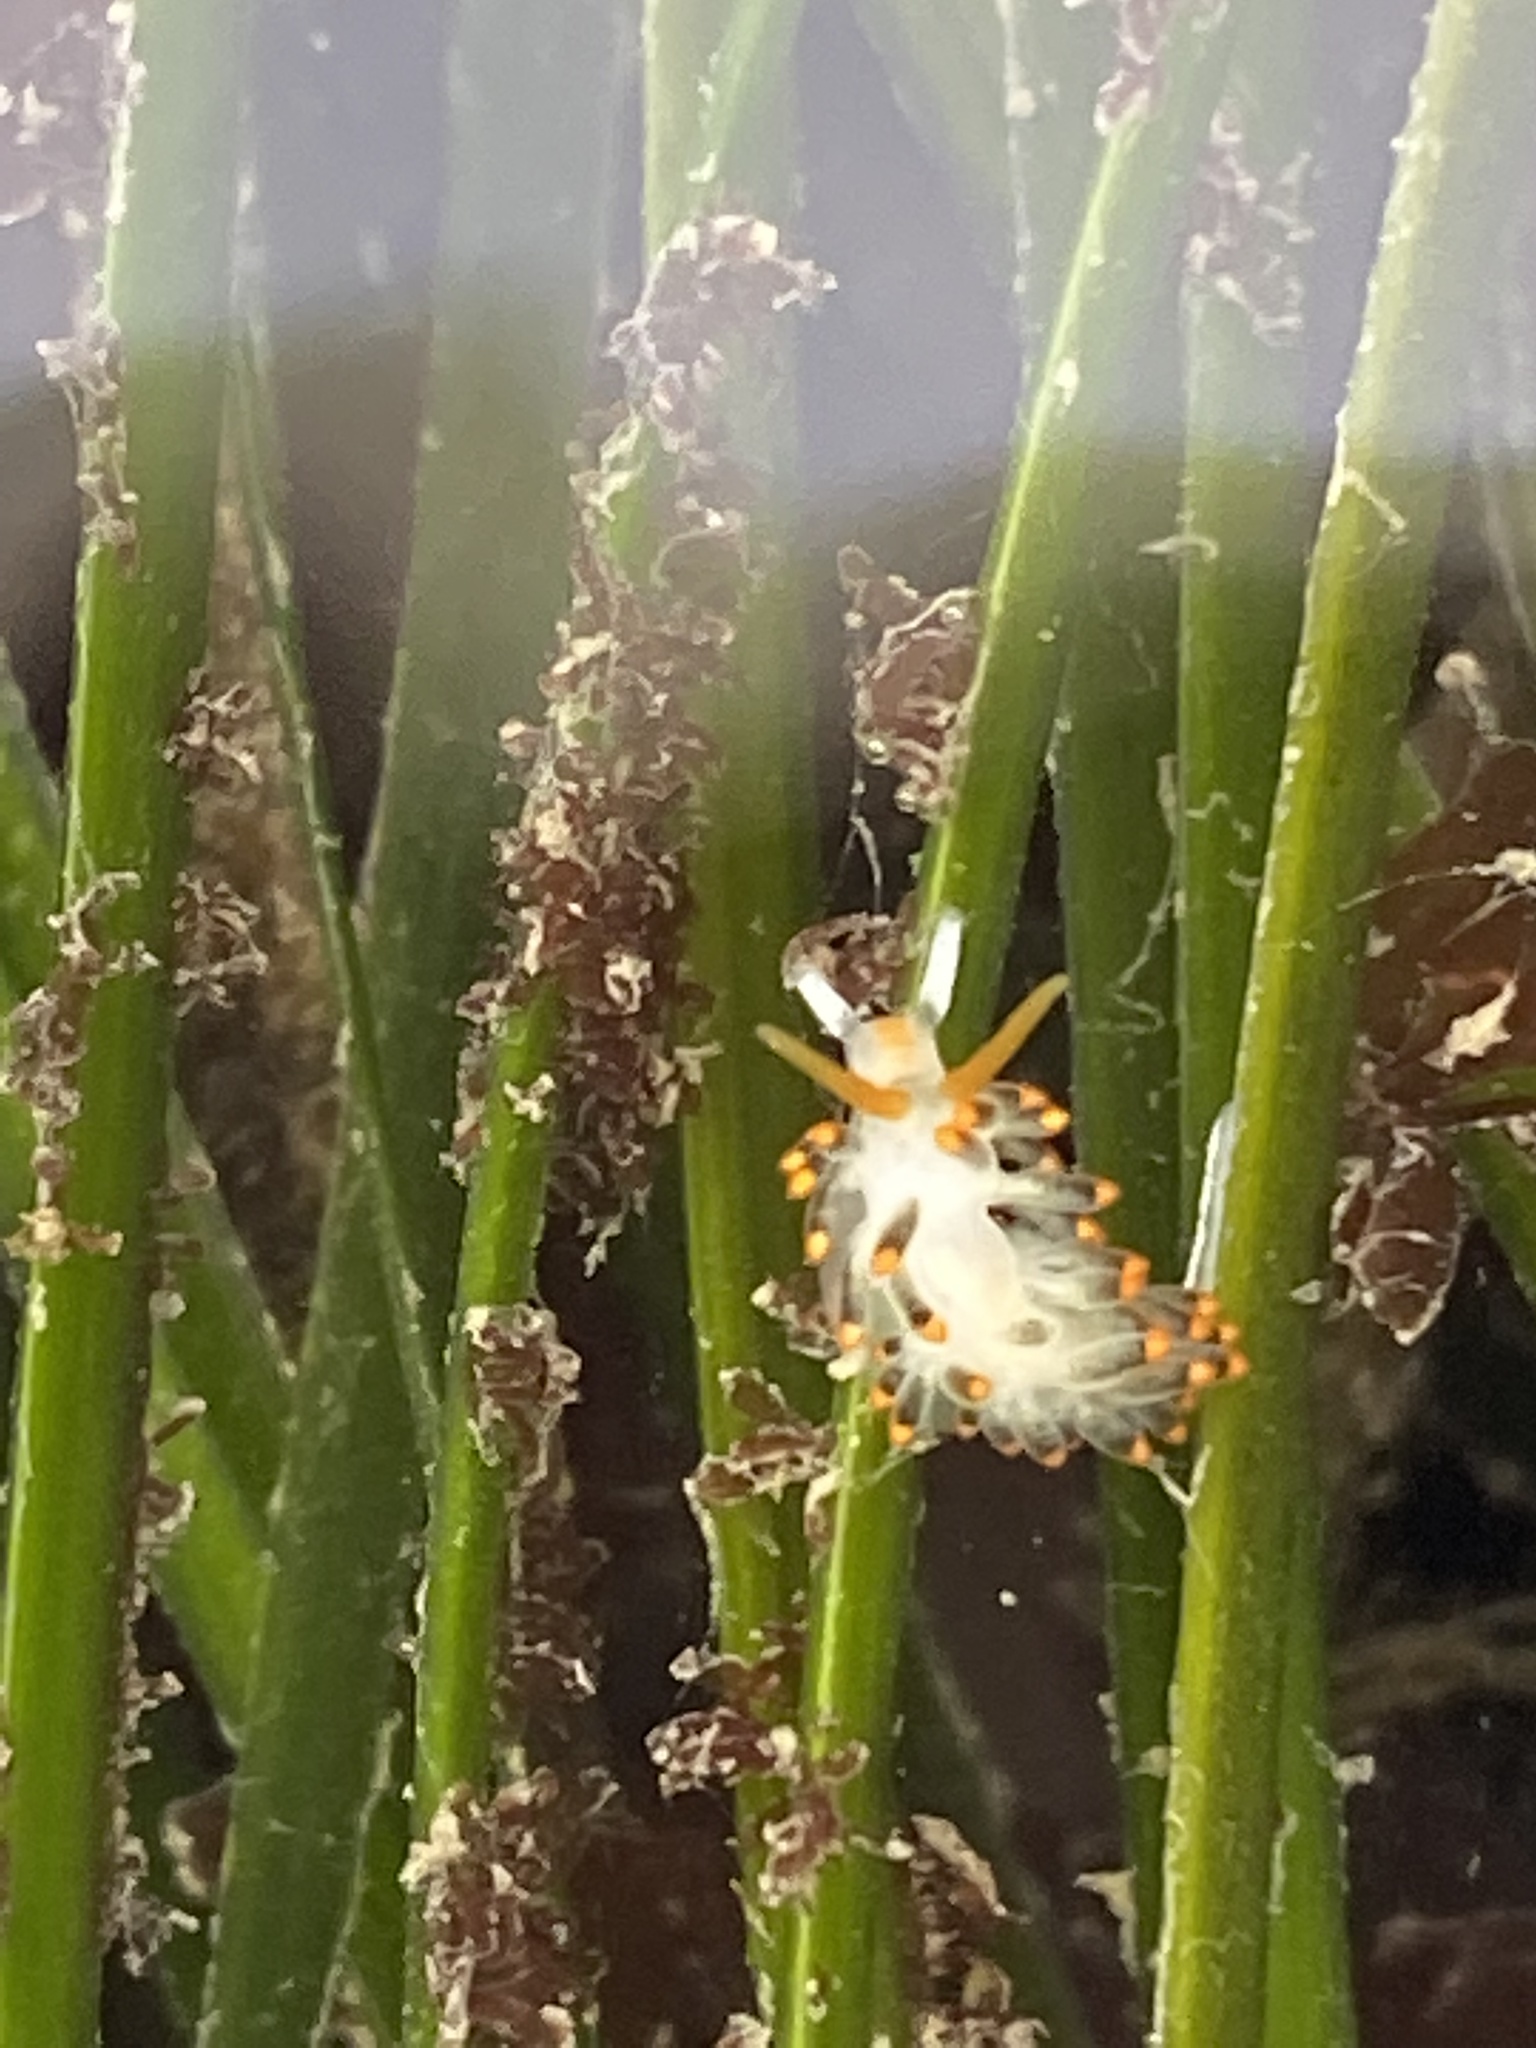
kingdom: Animalia
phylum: Mollusca
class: Gastropoda
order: Nudibranchia
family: Trinchesiidae
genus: Diaphoreolis
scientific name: Diaphoreolis lagunae
